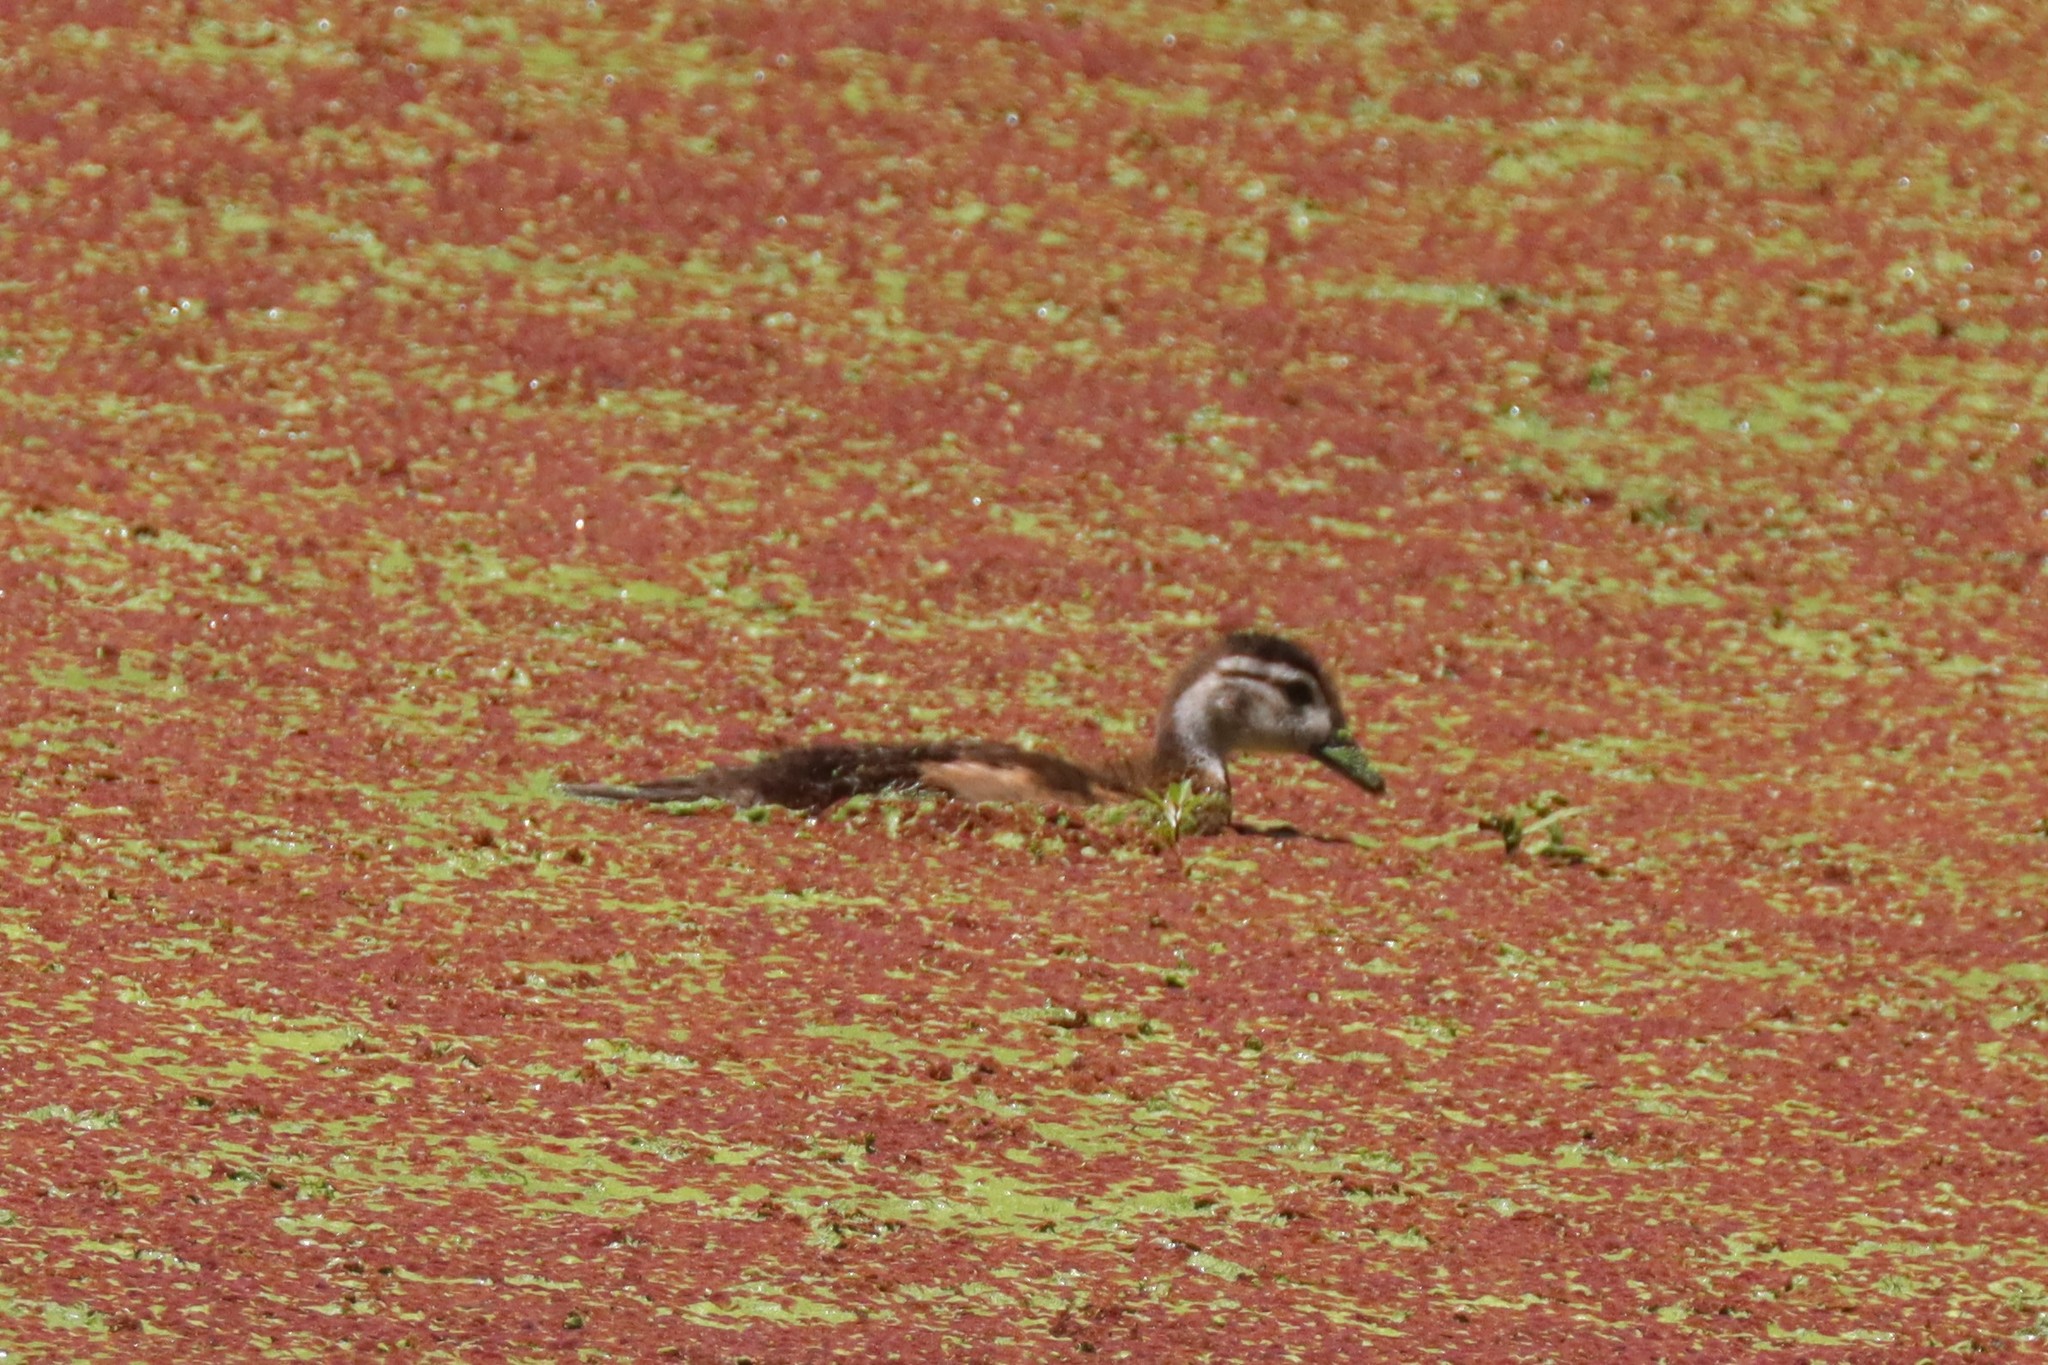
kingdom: Animalia
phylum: Chordata
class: Aves
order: Anseriformes
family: Anatidae
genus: Aix
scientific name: Aix sponsa
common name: Wood duck
